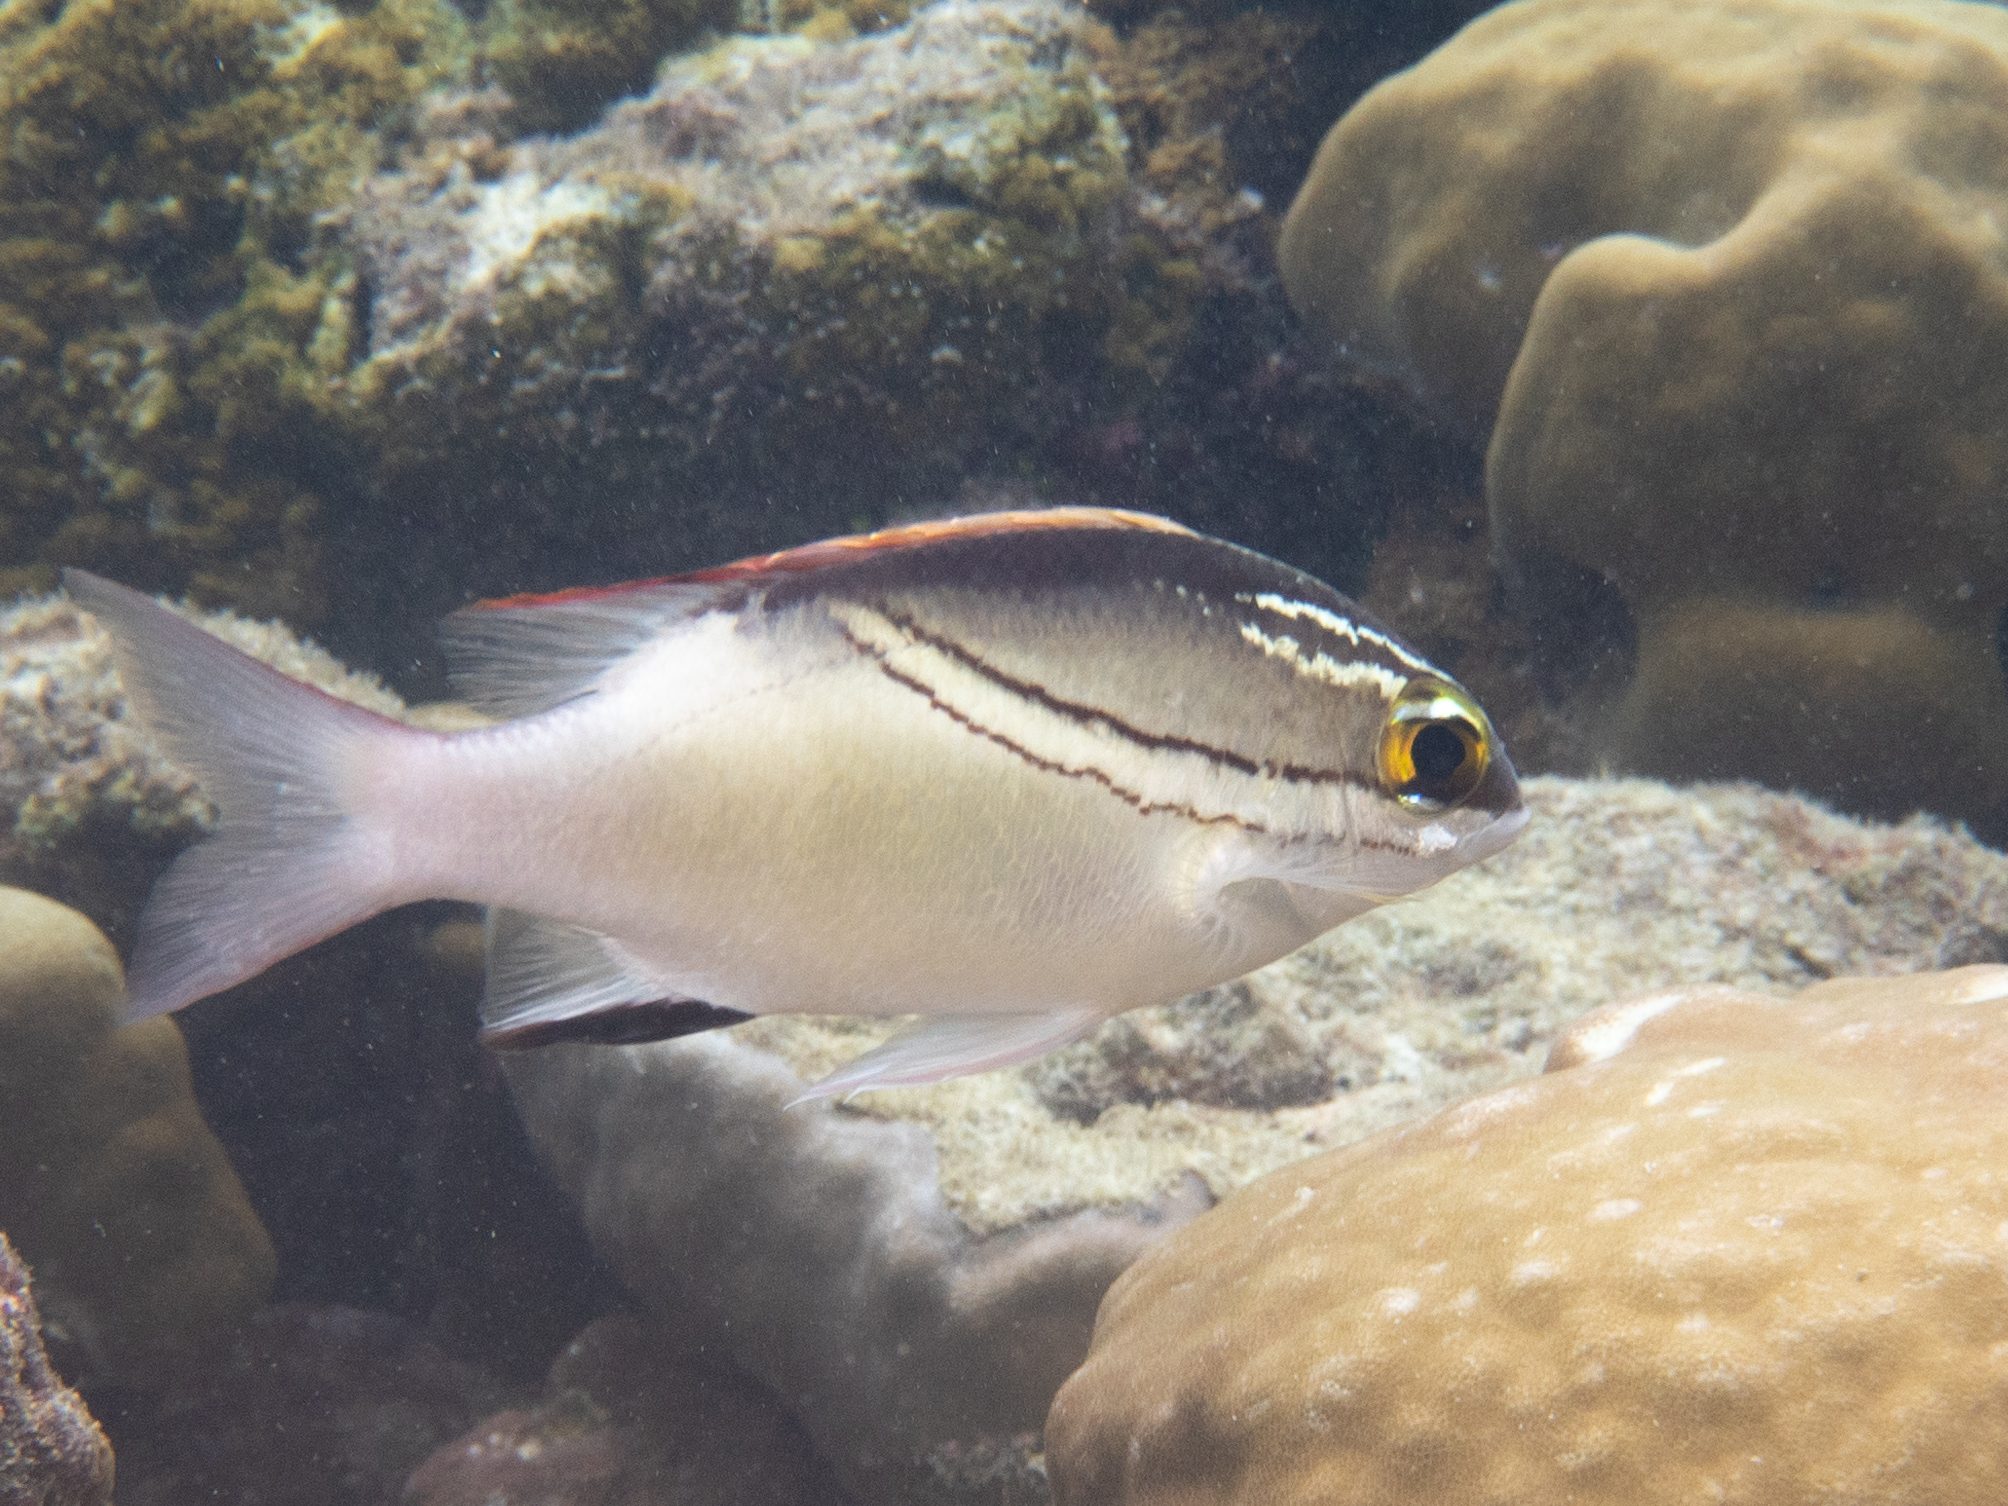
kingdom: Animalia
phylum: Chordata
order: Perciformes
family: Nemipteridae
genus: Scolopsis
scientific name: Scolopsis bilineata
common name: Two-lined monocle bream
